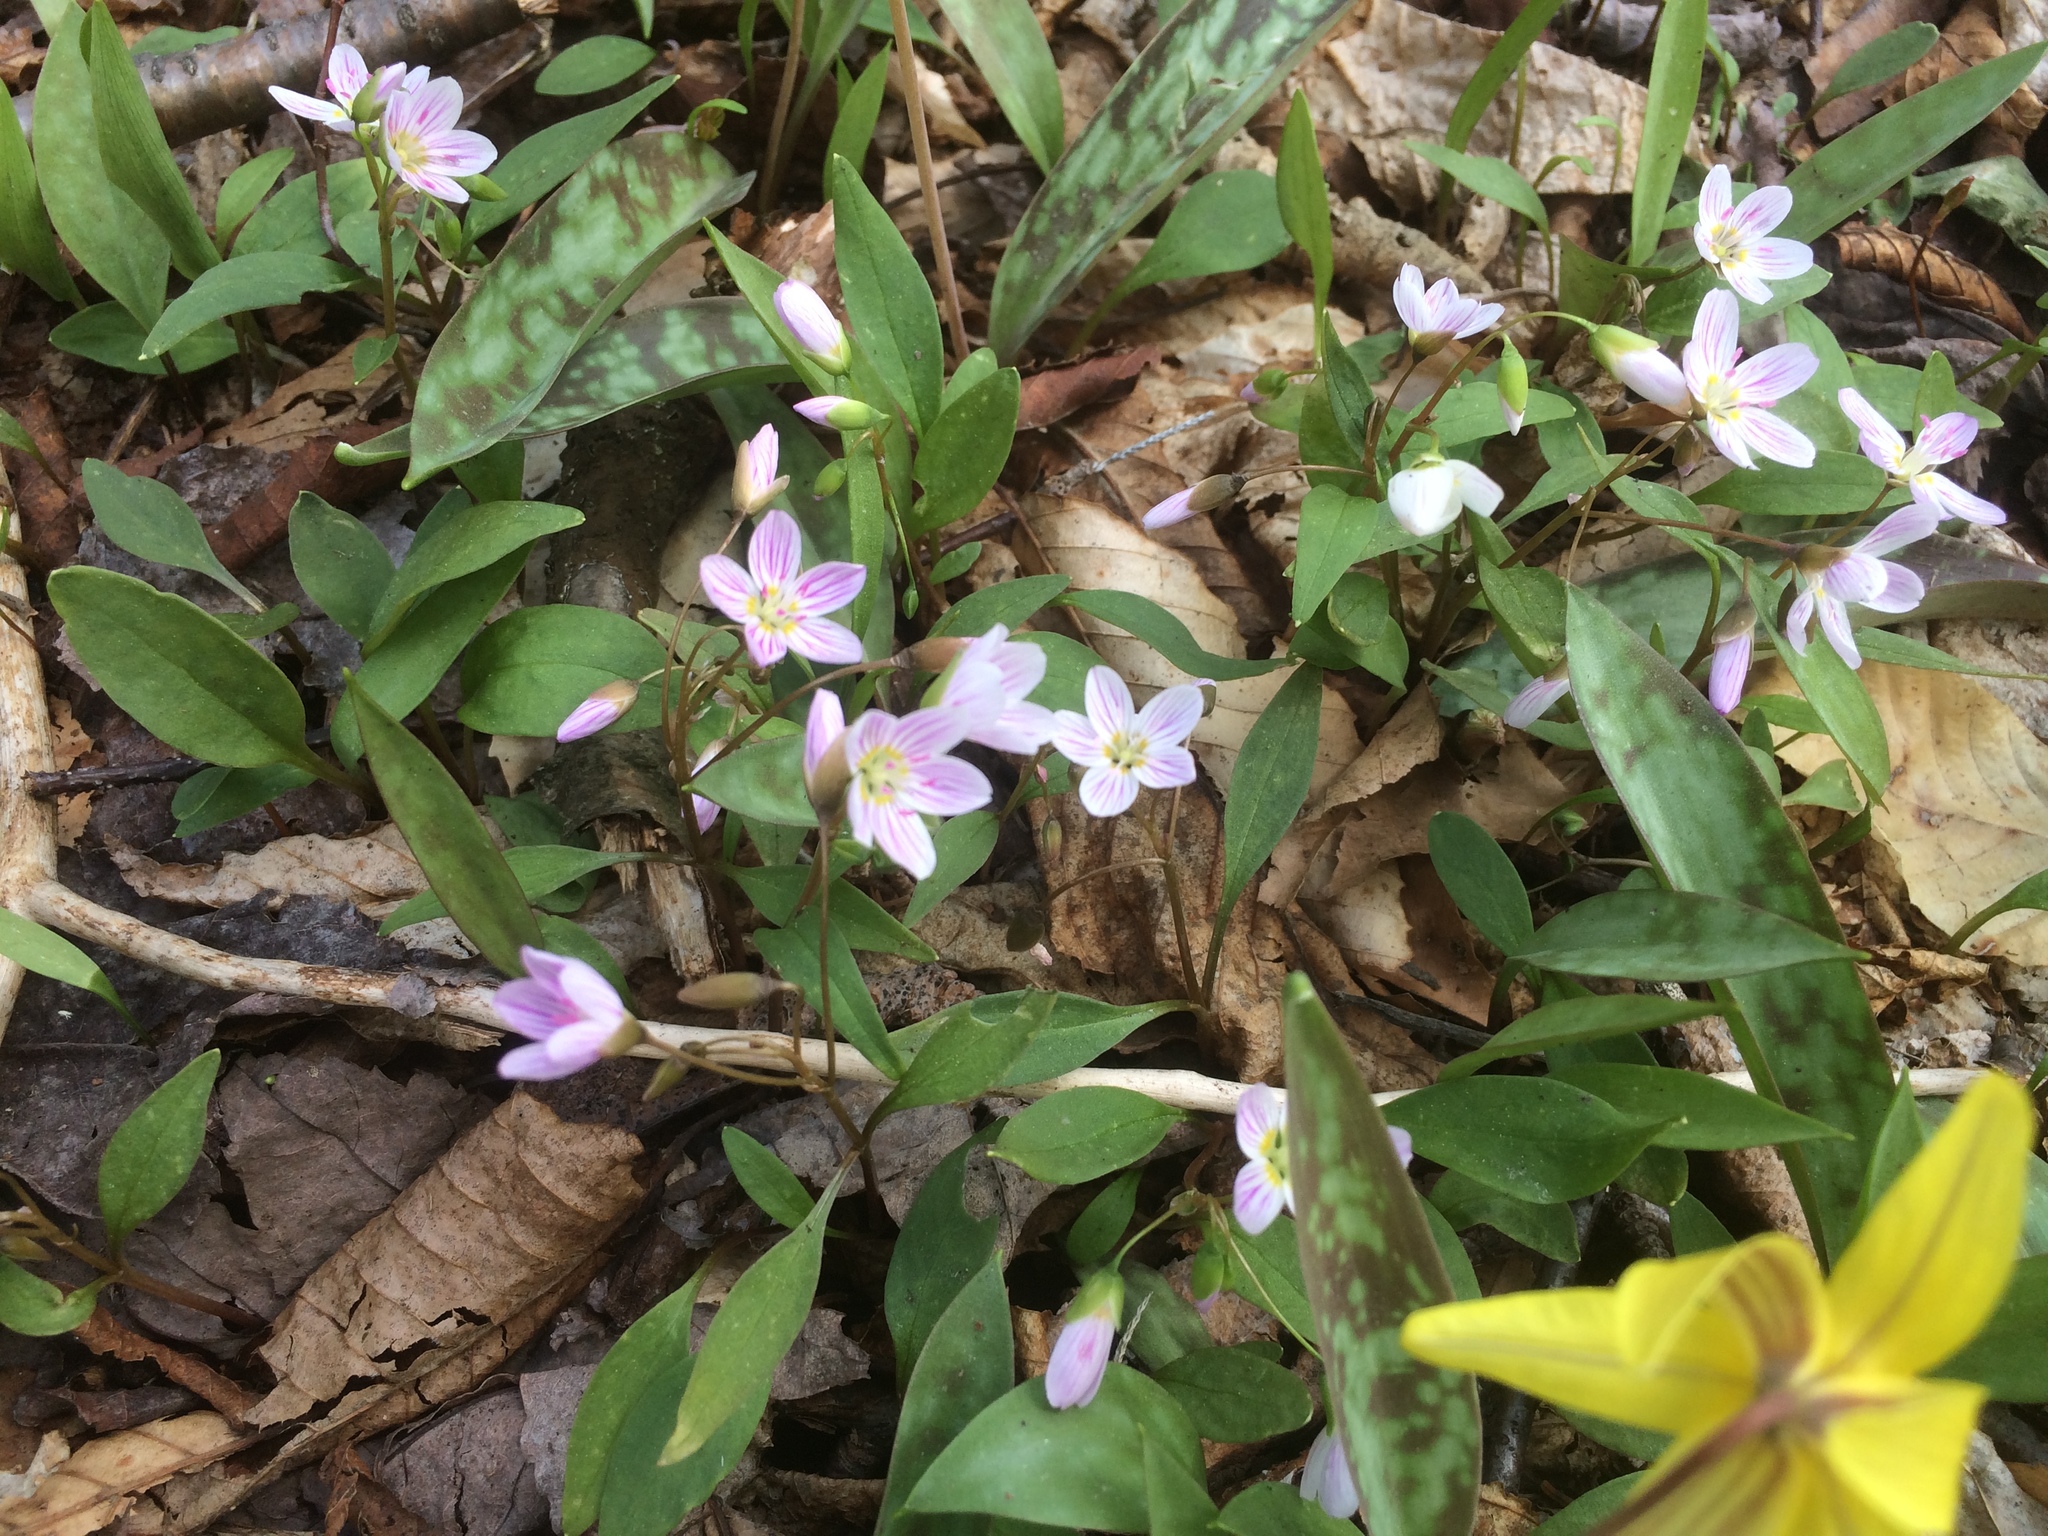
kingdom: Plantae
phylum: Tracheophyta
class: Magnoliopsida
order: Caryophyllales
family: Montiaceae
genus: Claytonia
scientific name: Claytonia caroliniana
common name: Carolina spring beauty
